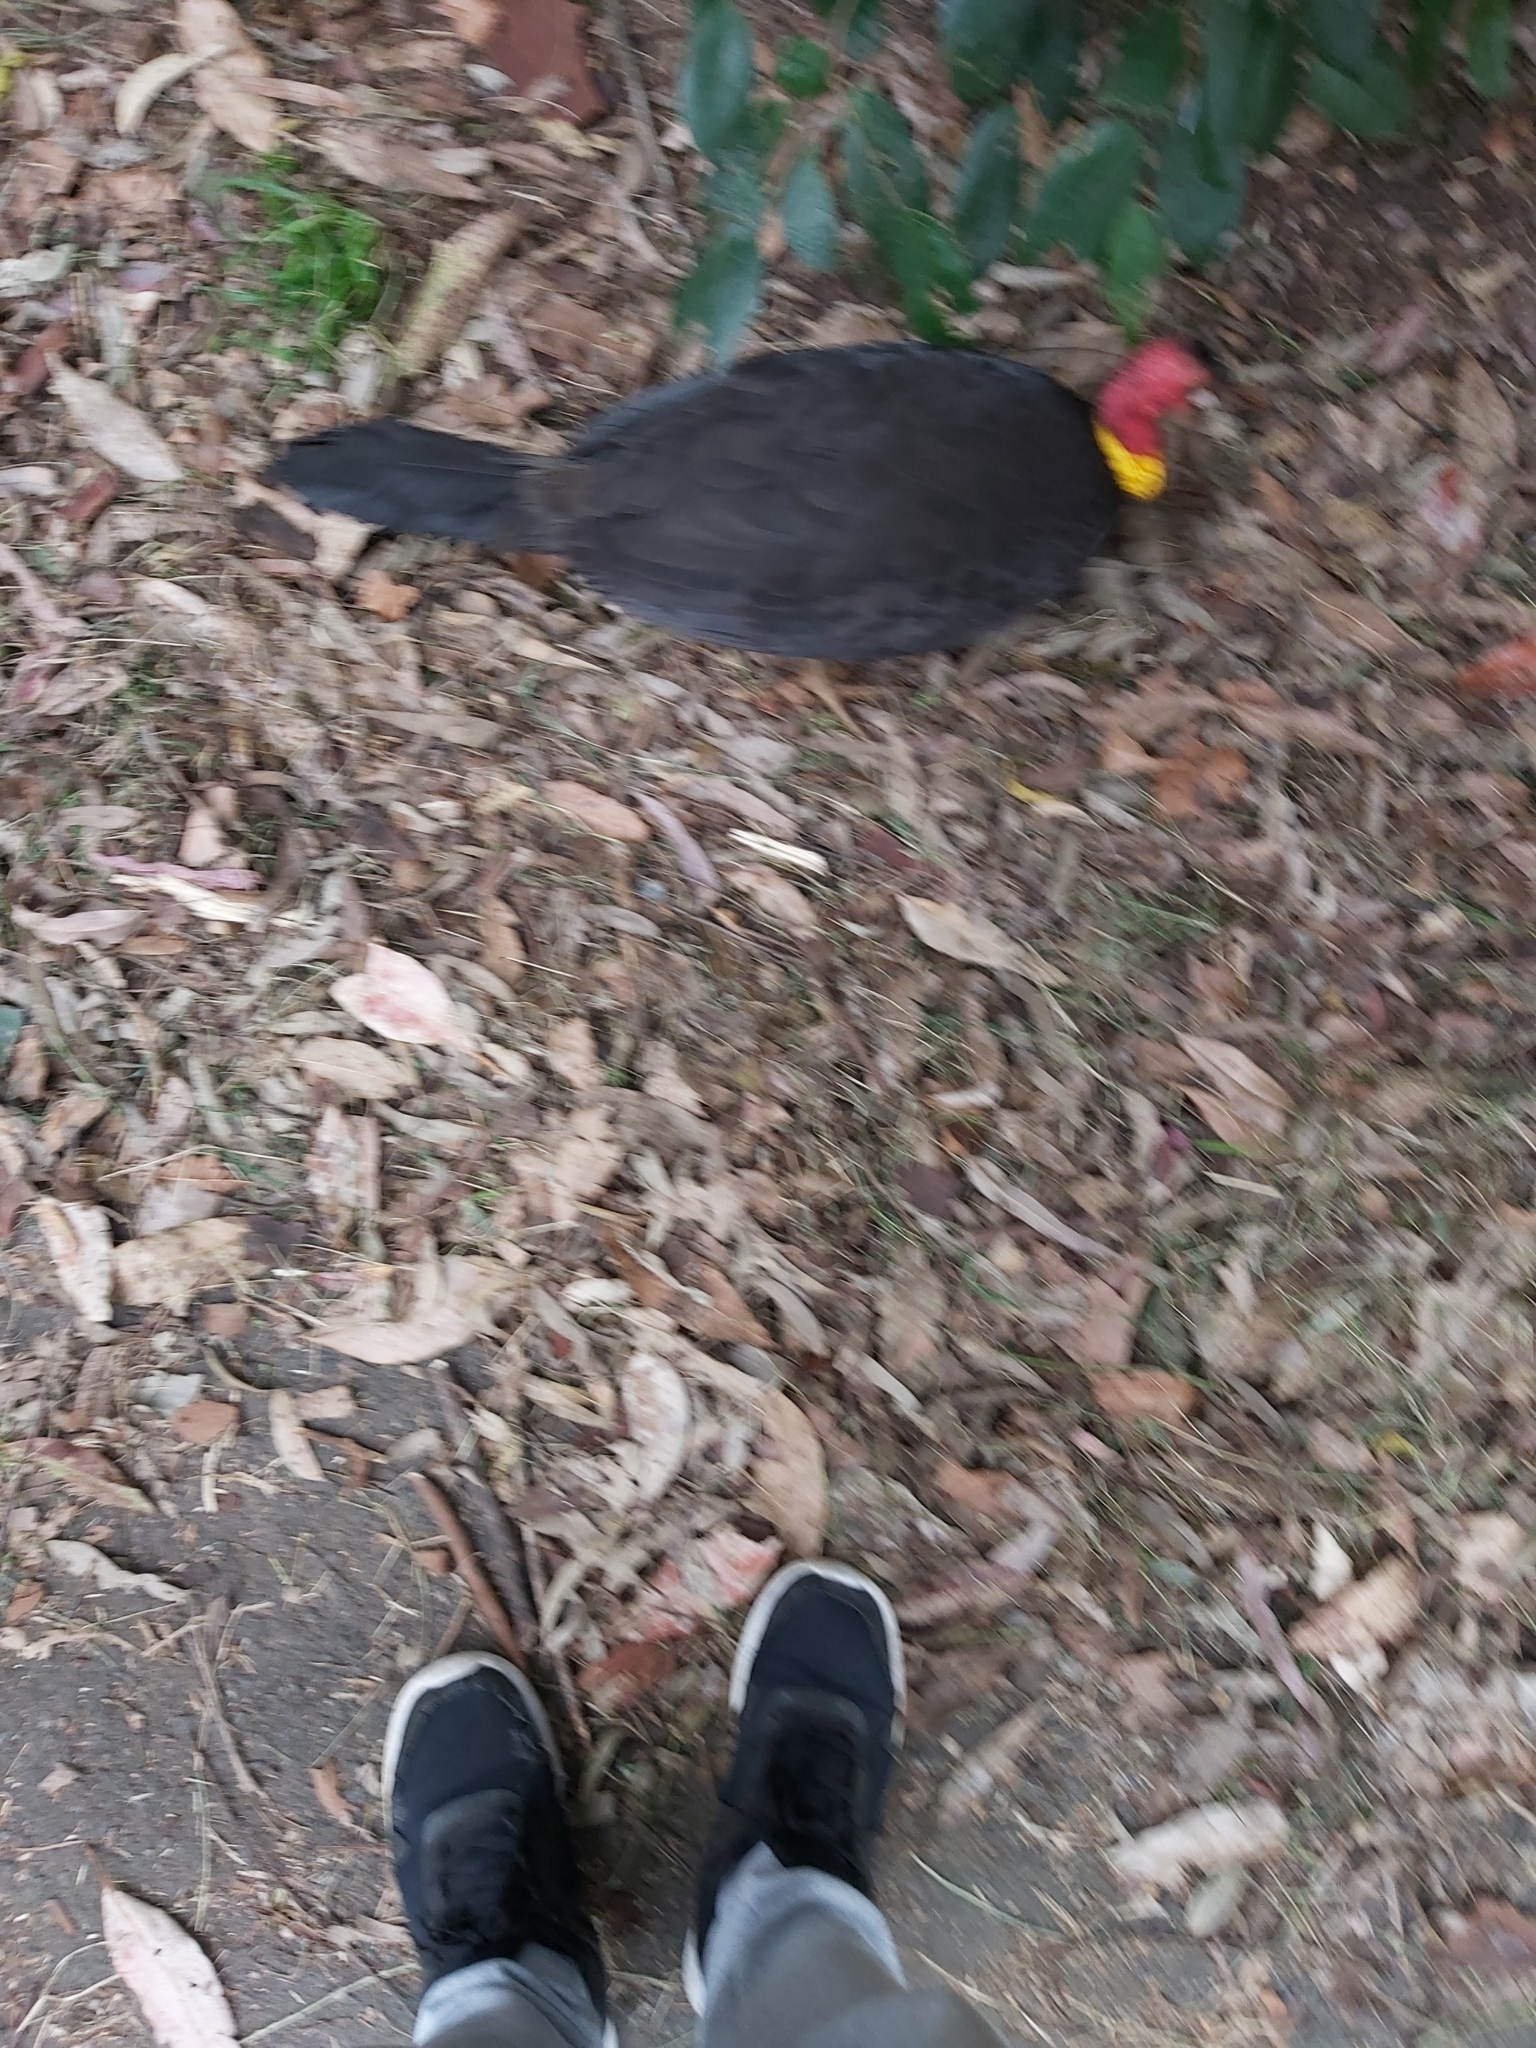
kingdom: Animalia
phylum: Chordata
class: Aves
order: Galliformes
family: Megapodiidae
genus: Alectura
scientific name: Alectura lathami
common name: Australian brushturkey
